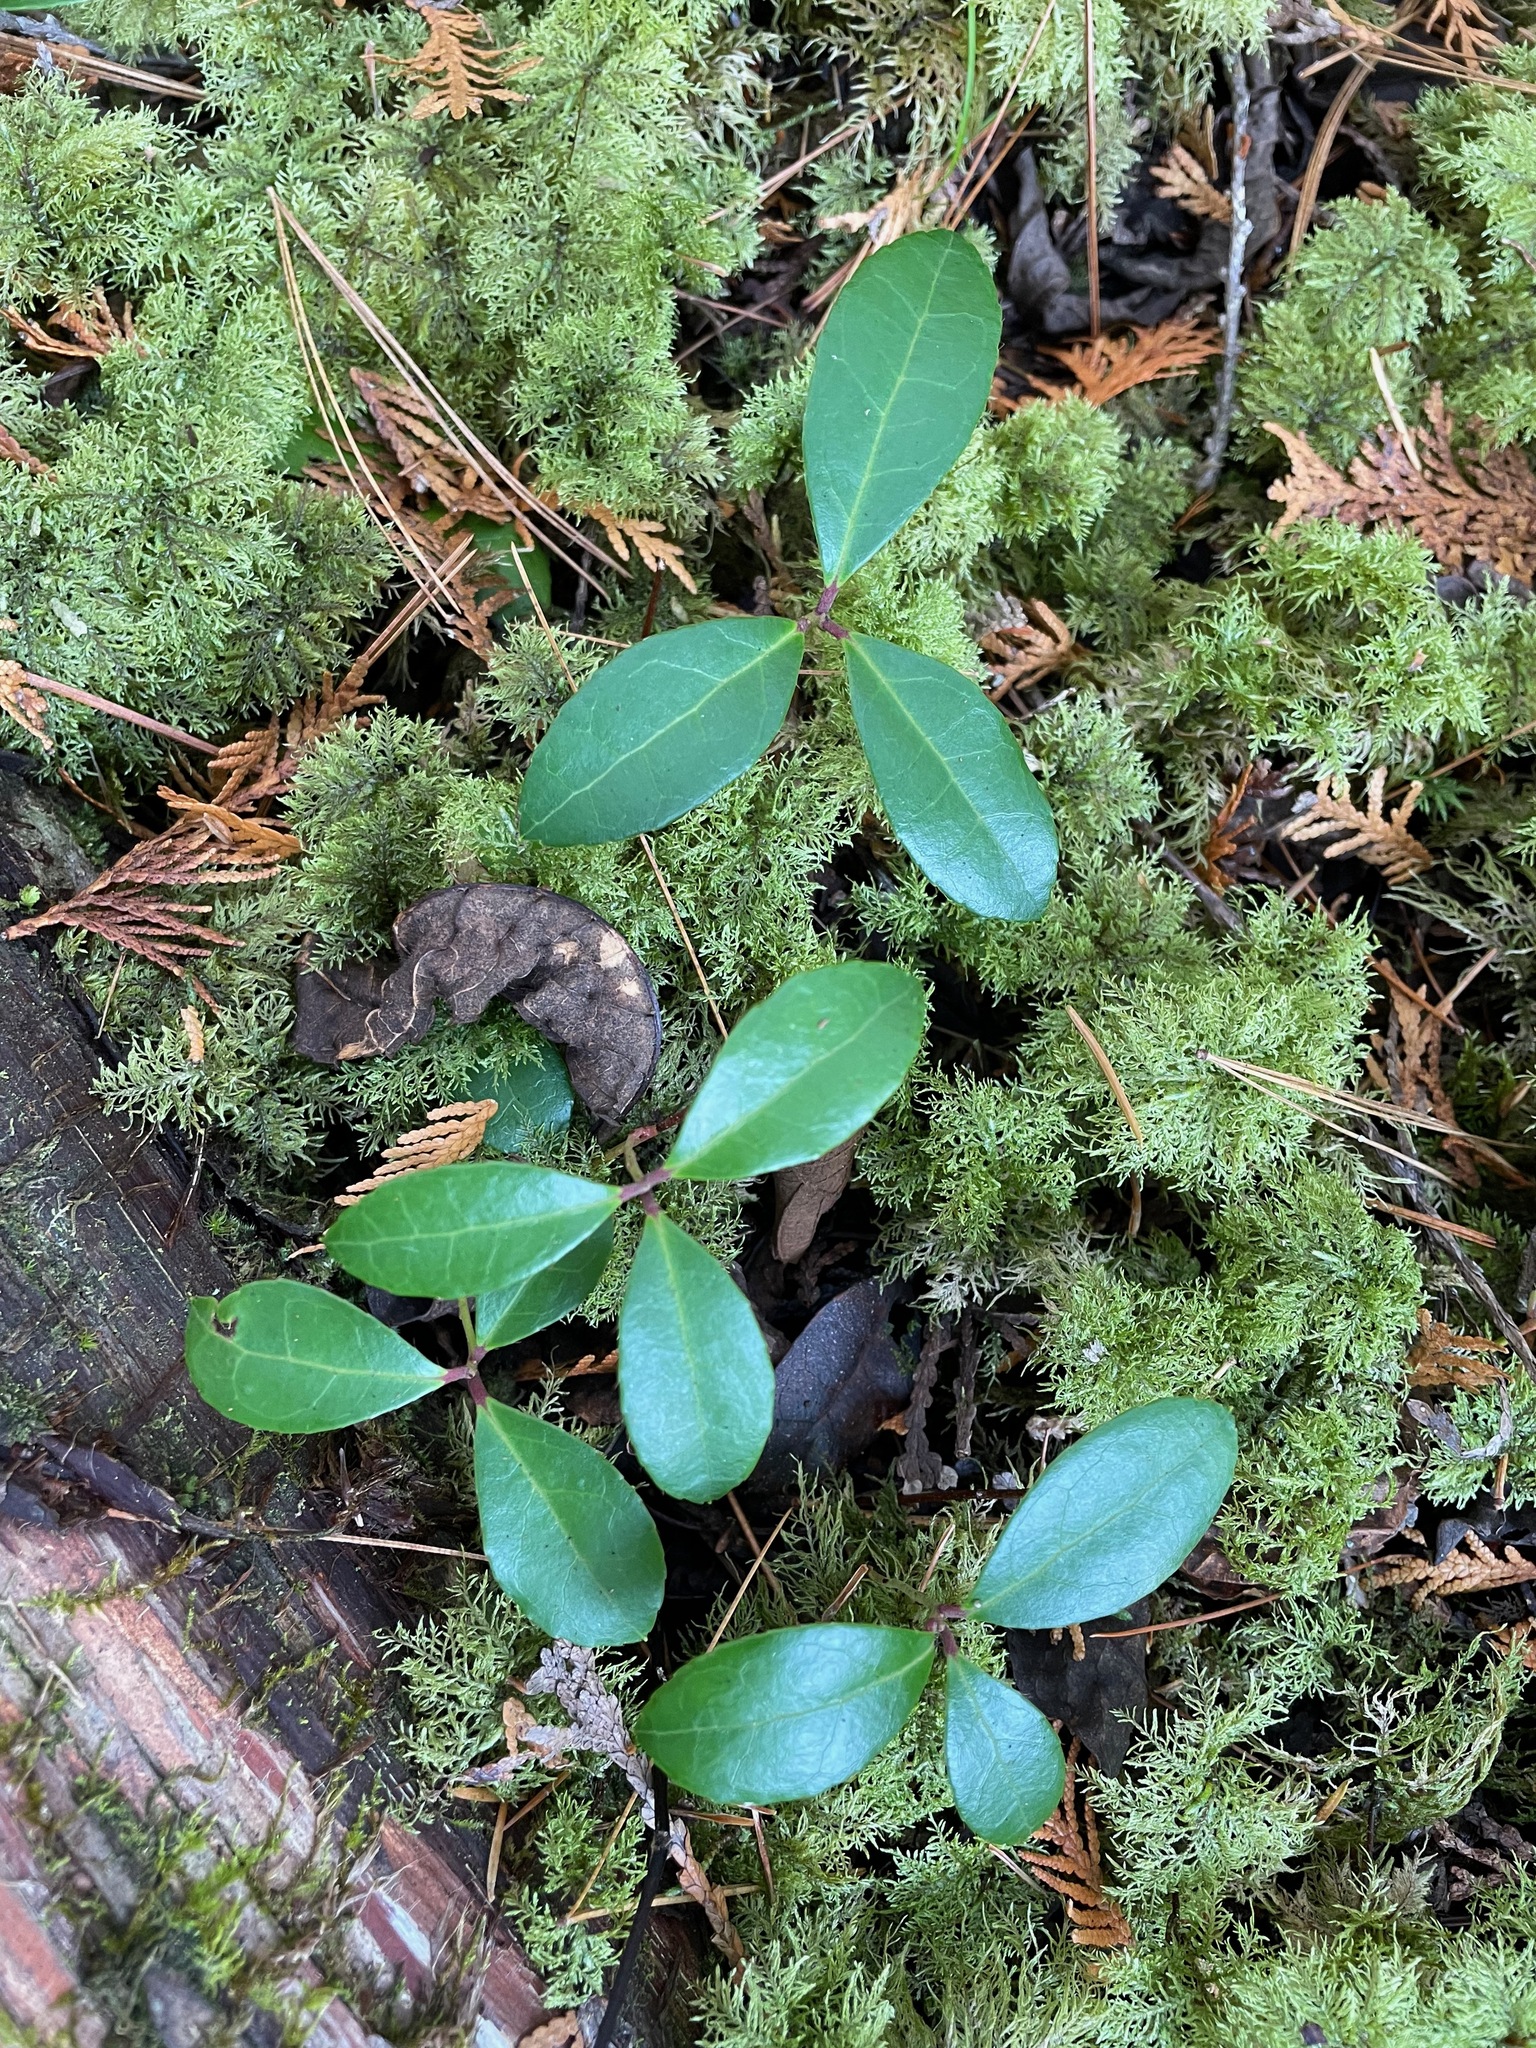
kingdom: Plantae
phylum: Tracheophyta
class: Magnoliopsida
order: Ericales
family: Ericaceae
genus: Gaultheria
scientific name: Gaultheria procumbens
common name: Checkerberry
